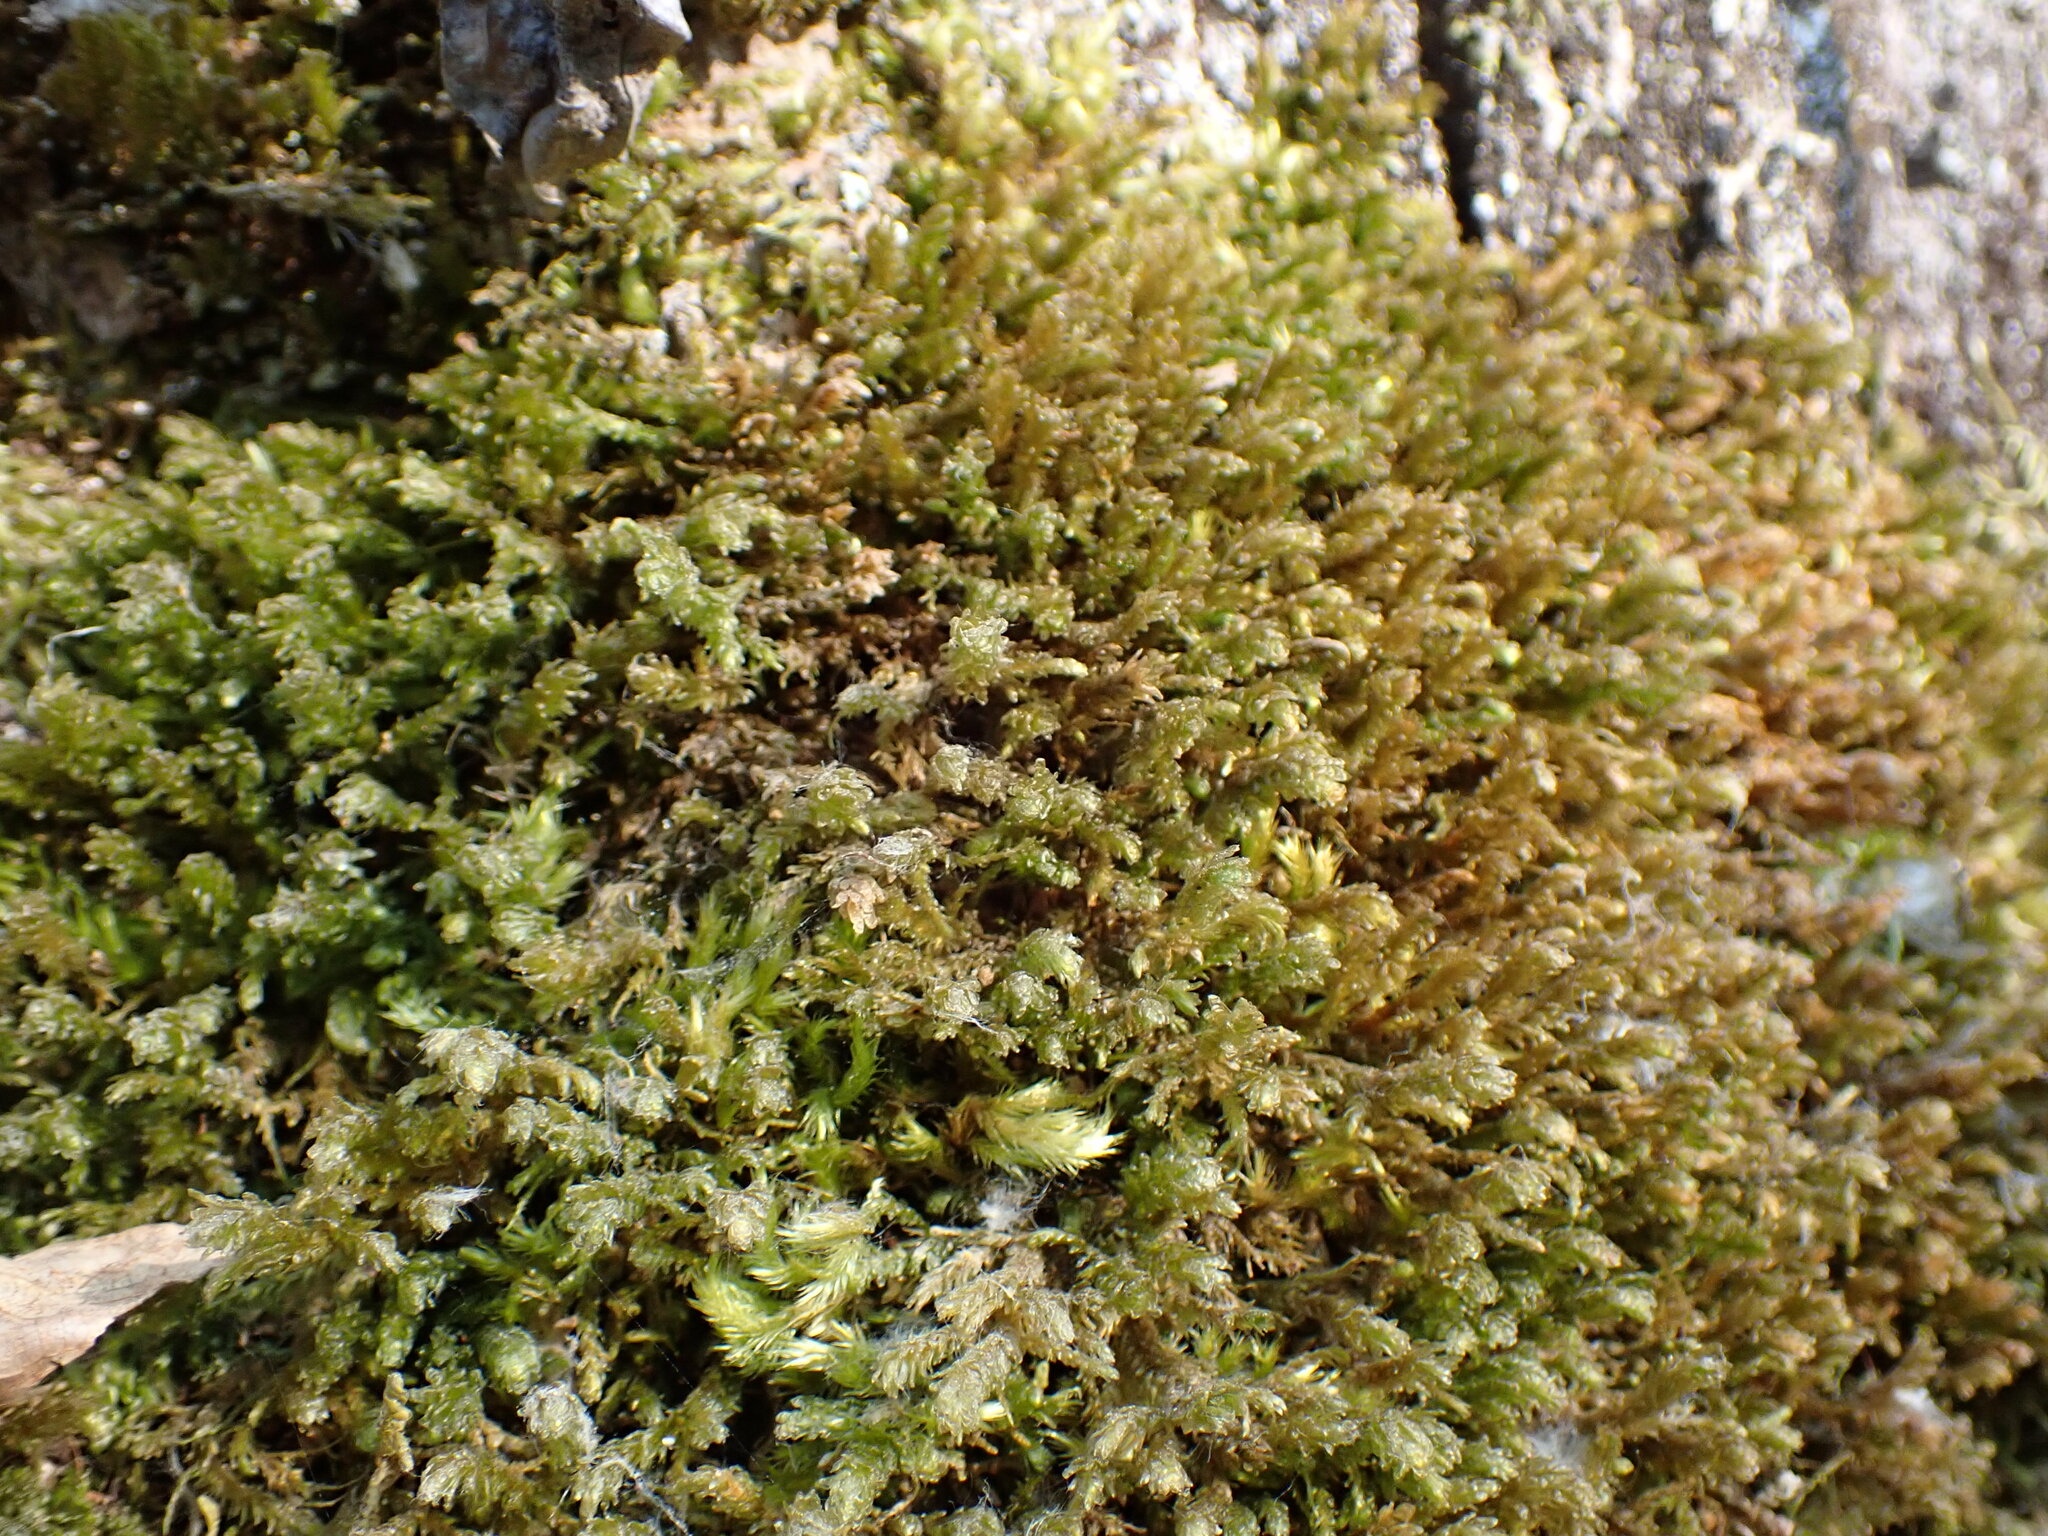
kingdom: Plantae
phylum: Bryophyta
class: Bryopsida
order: Hypnales
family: Neckeraceae
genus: Metaneckera
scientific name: Metaneckera menziesii
